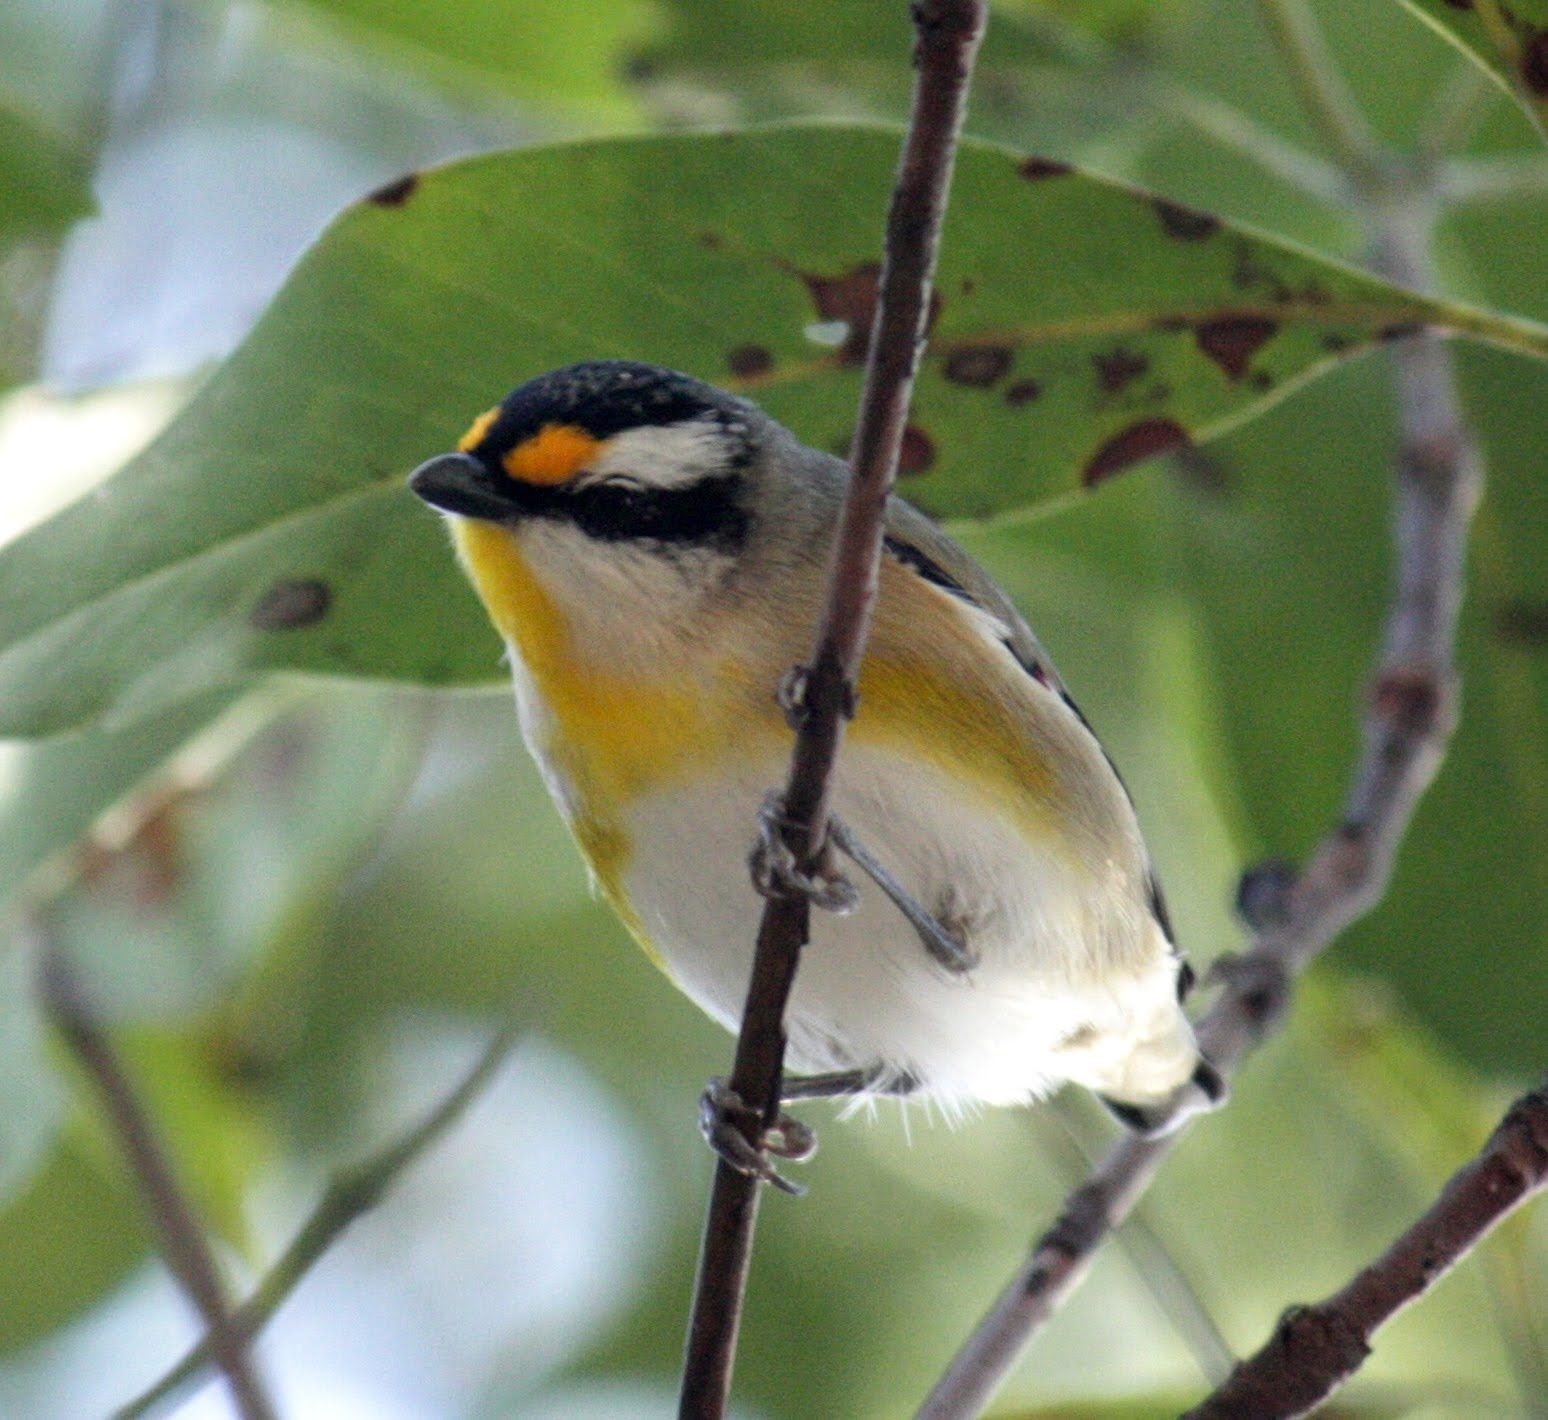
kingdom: Animalia
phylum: Chordata
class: Aves
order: Passeriformes
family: Pardalotidae
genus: Pardalotus
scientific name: Pardalotus striatus
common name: Striated pardalote
